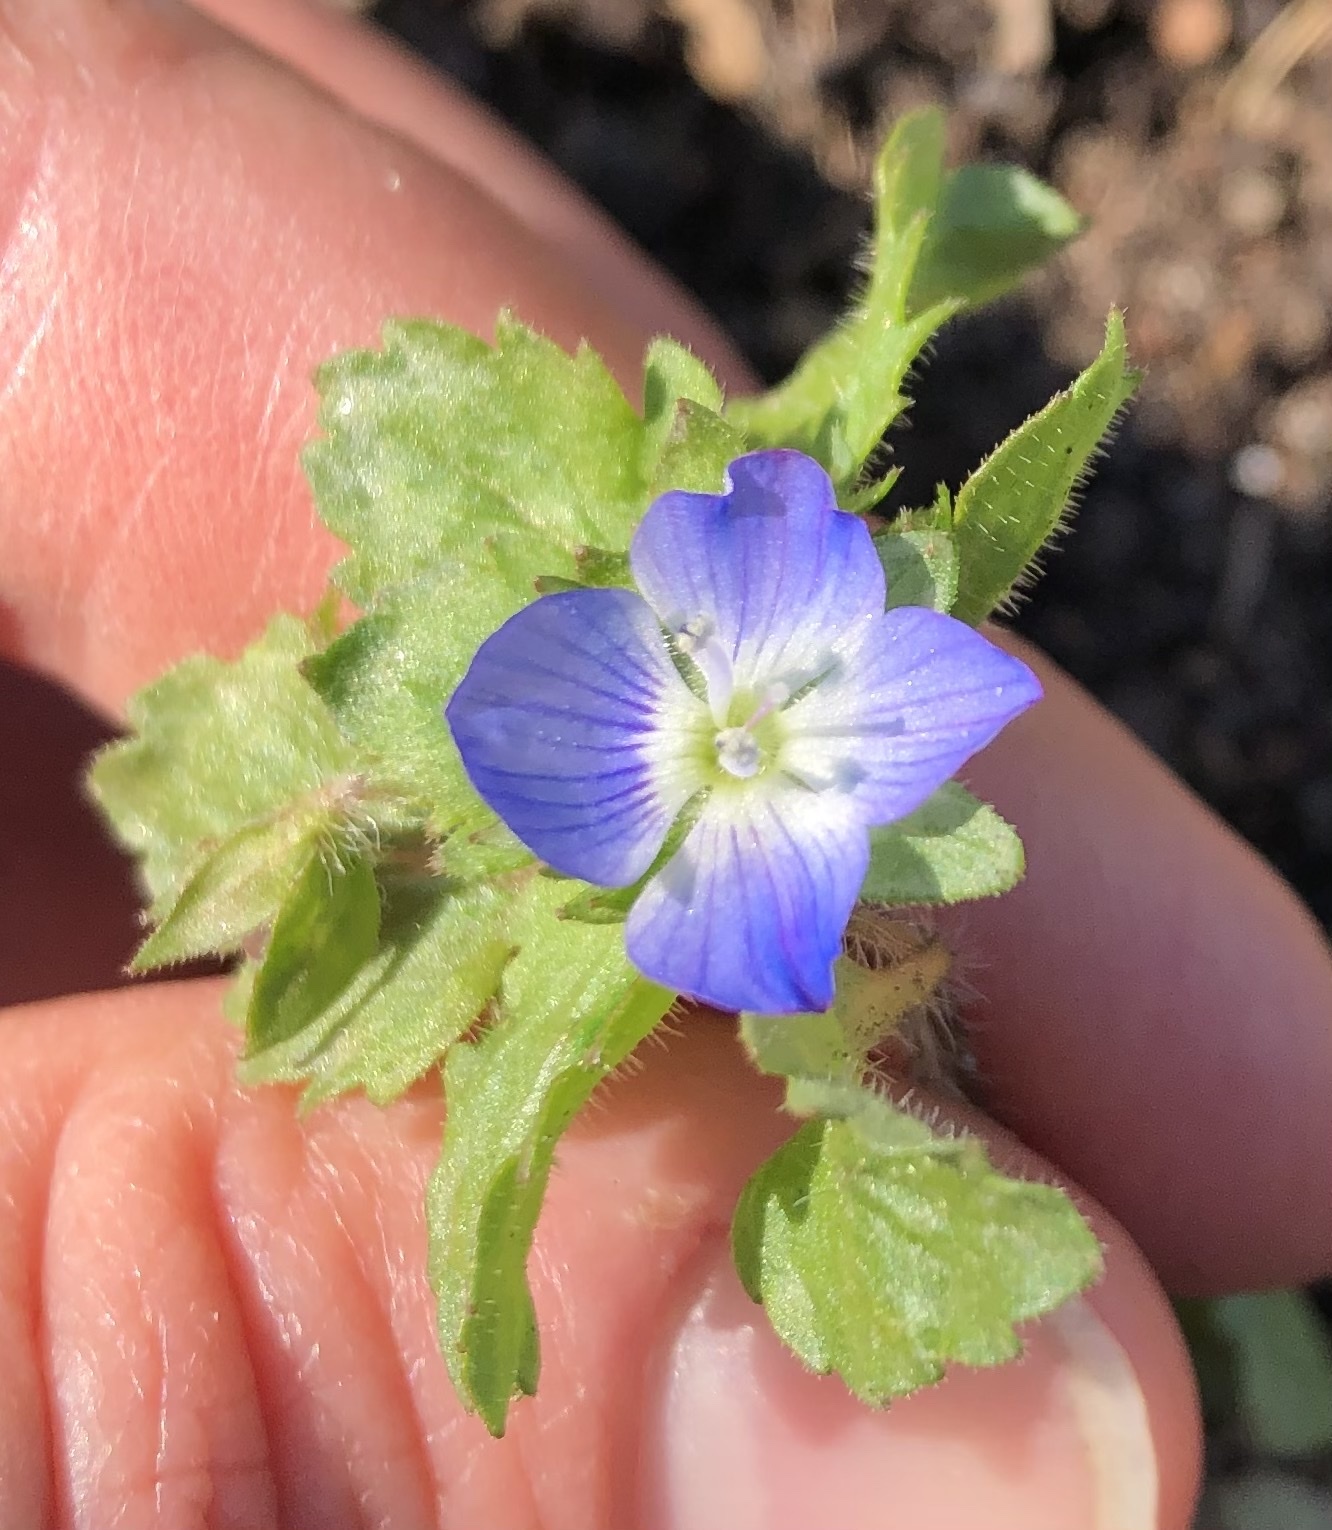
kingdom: Plantae
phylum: Tracheophyta
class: Magnoliopsida
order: Lamiales
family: Plantaginaceae
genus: Veronica
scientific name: Veronica persica
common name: Common field-speedwell
